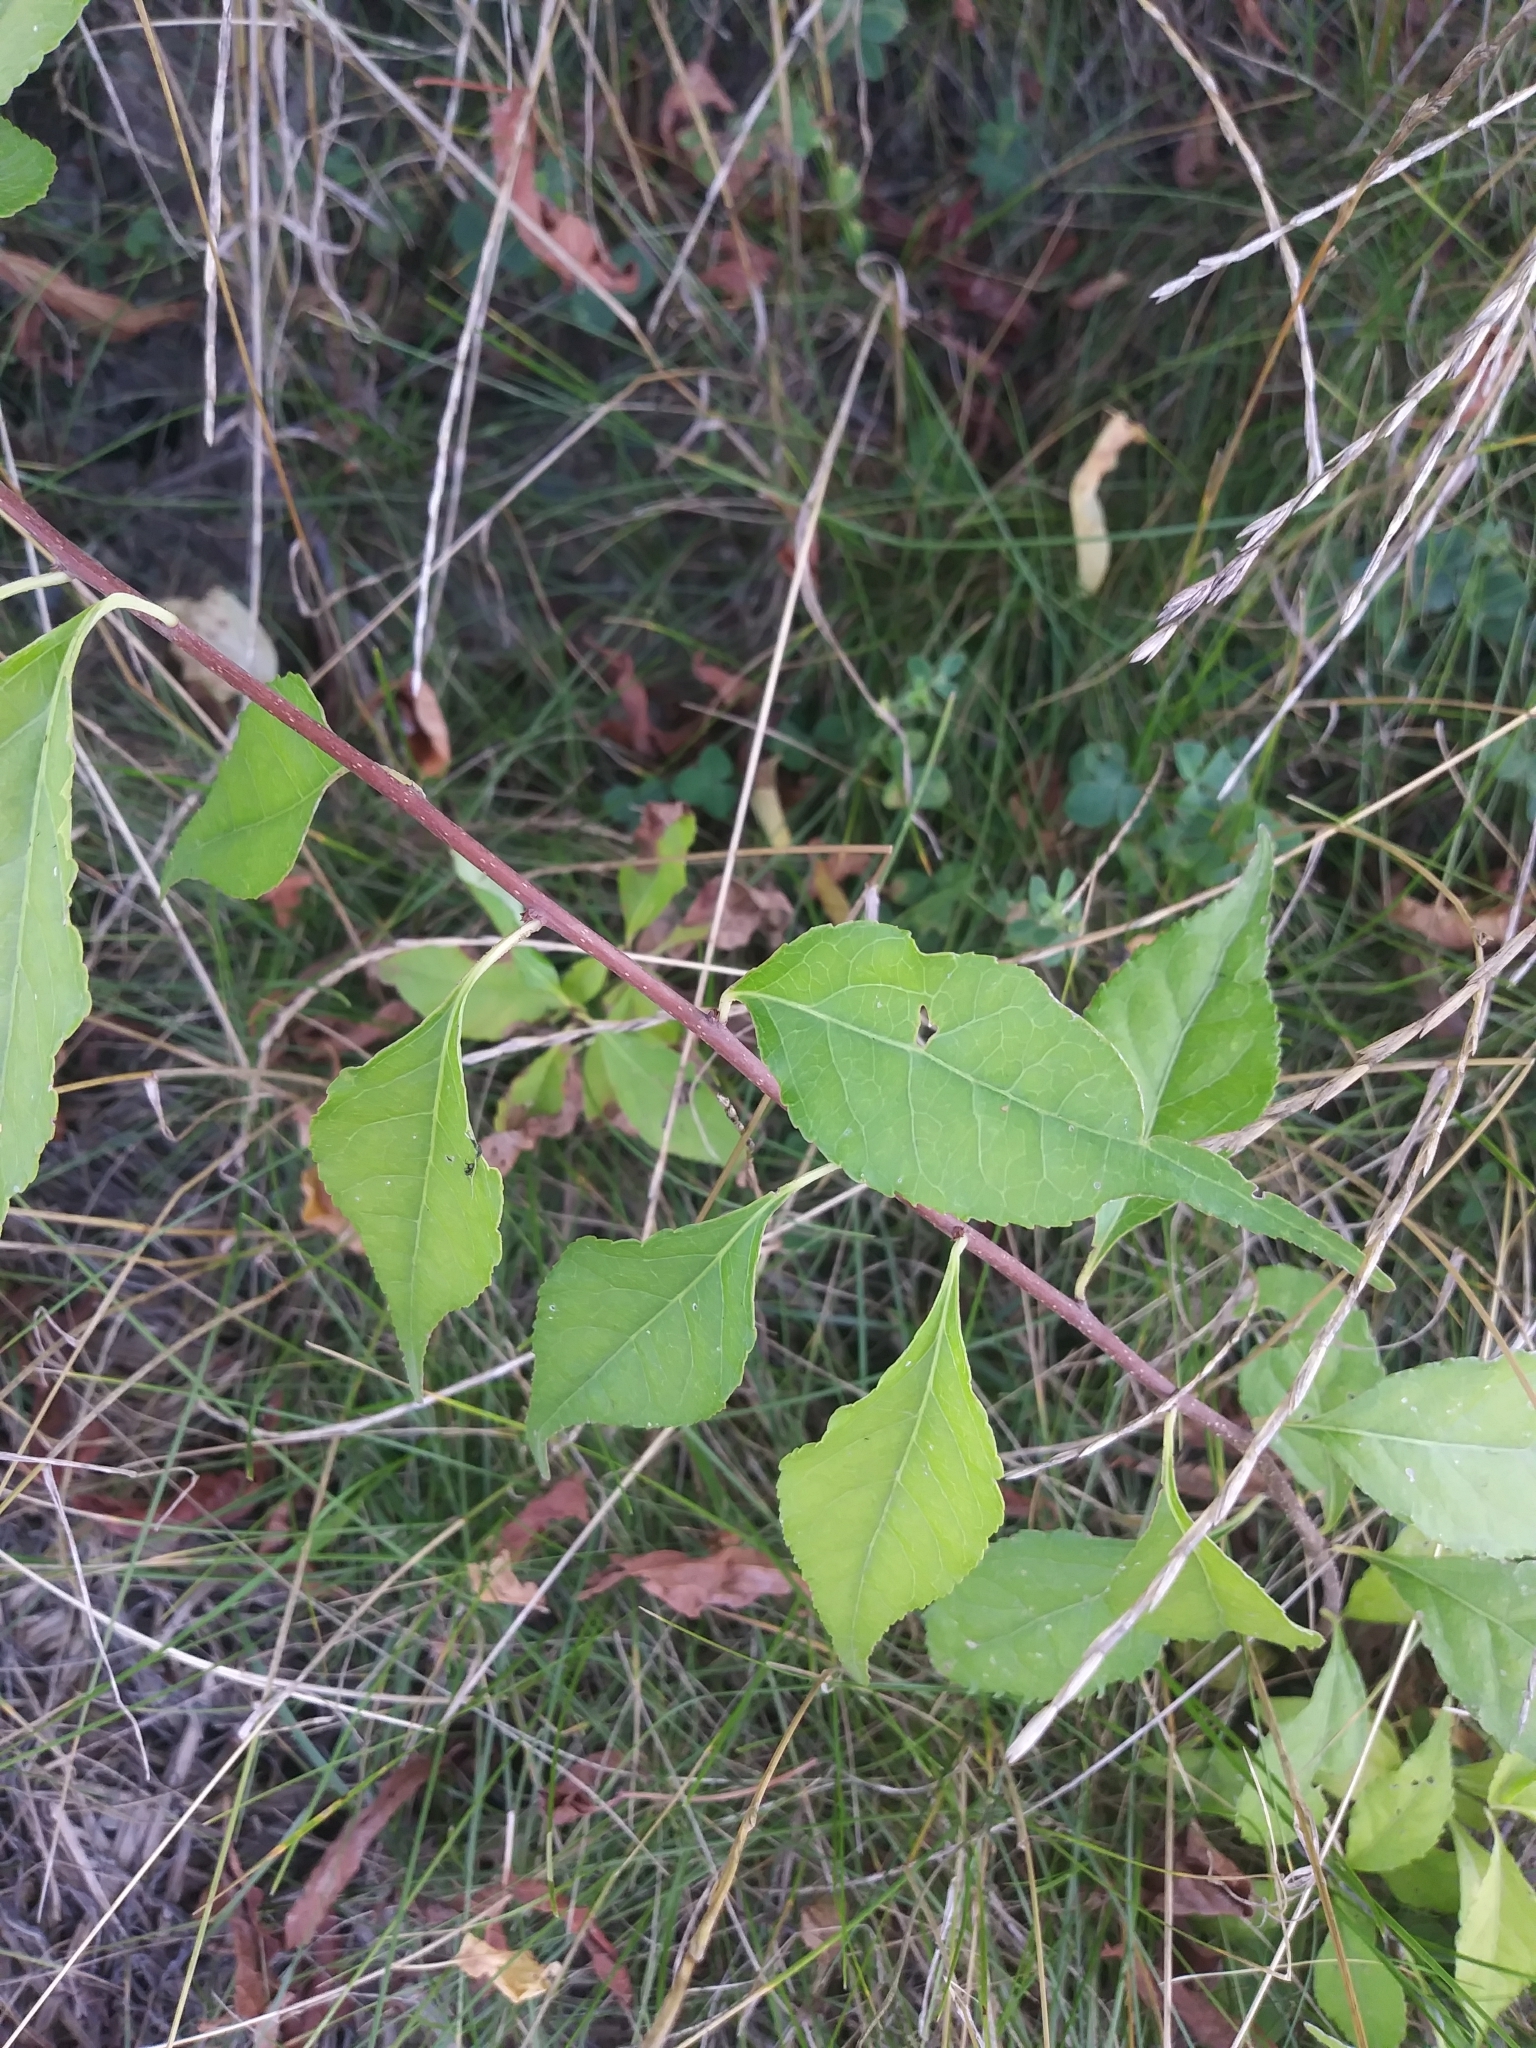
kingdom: Plantae
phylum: Tracheophyta
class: Magnoliopsida
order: Celastrales
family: Celastraceae
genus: Celastrus
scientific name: Celastrus orbiculatus
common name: Oriental bittersweet
